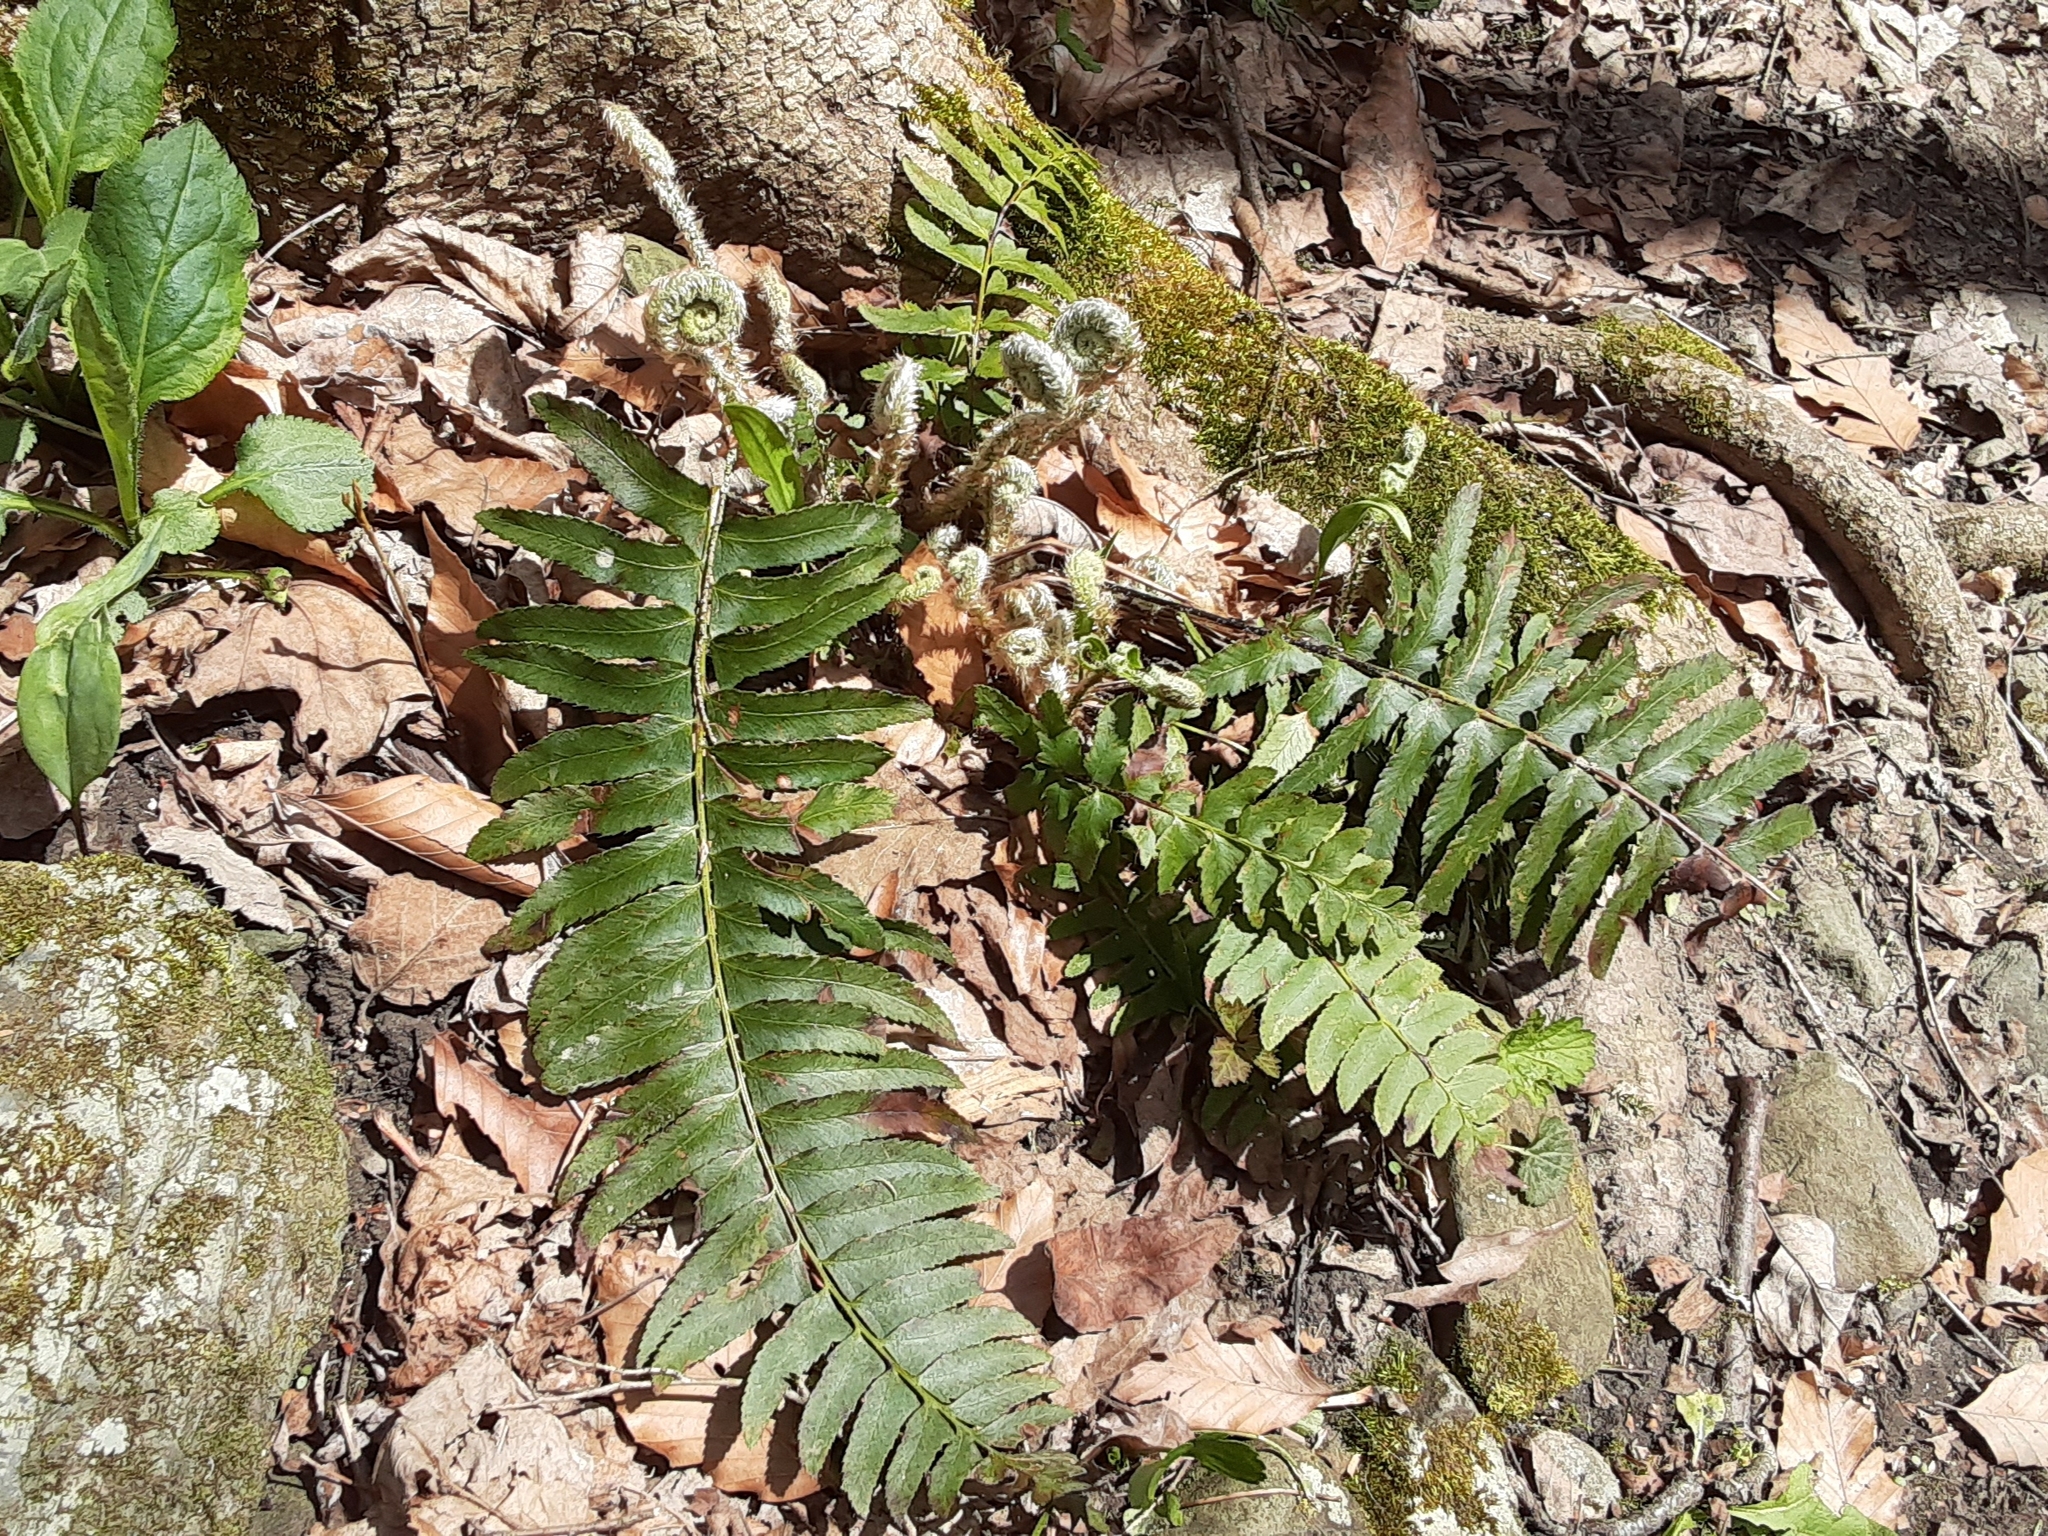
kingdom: Plantae
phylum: Tracheophyta
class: Polypodiopsida
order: Polypodiales
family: Dryopteridaceae
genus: Polystichum
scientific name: Polystichum acrostichoides
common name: Christmas fern
